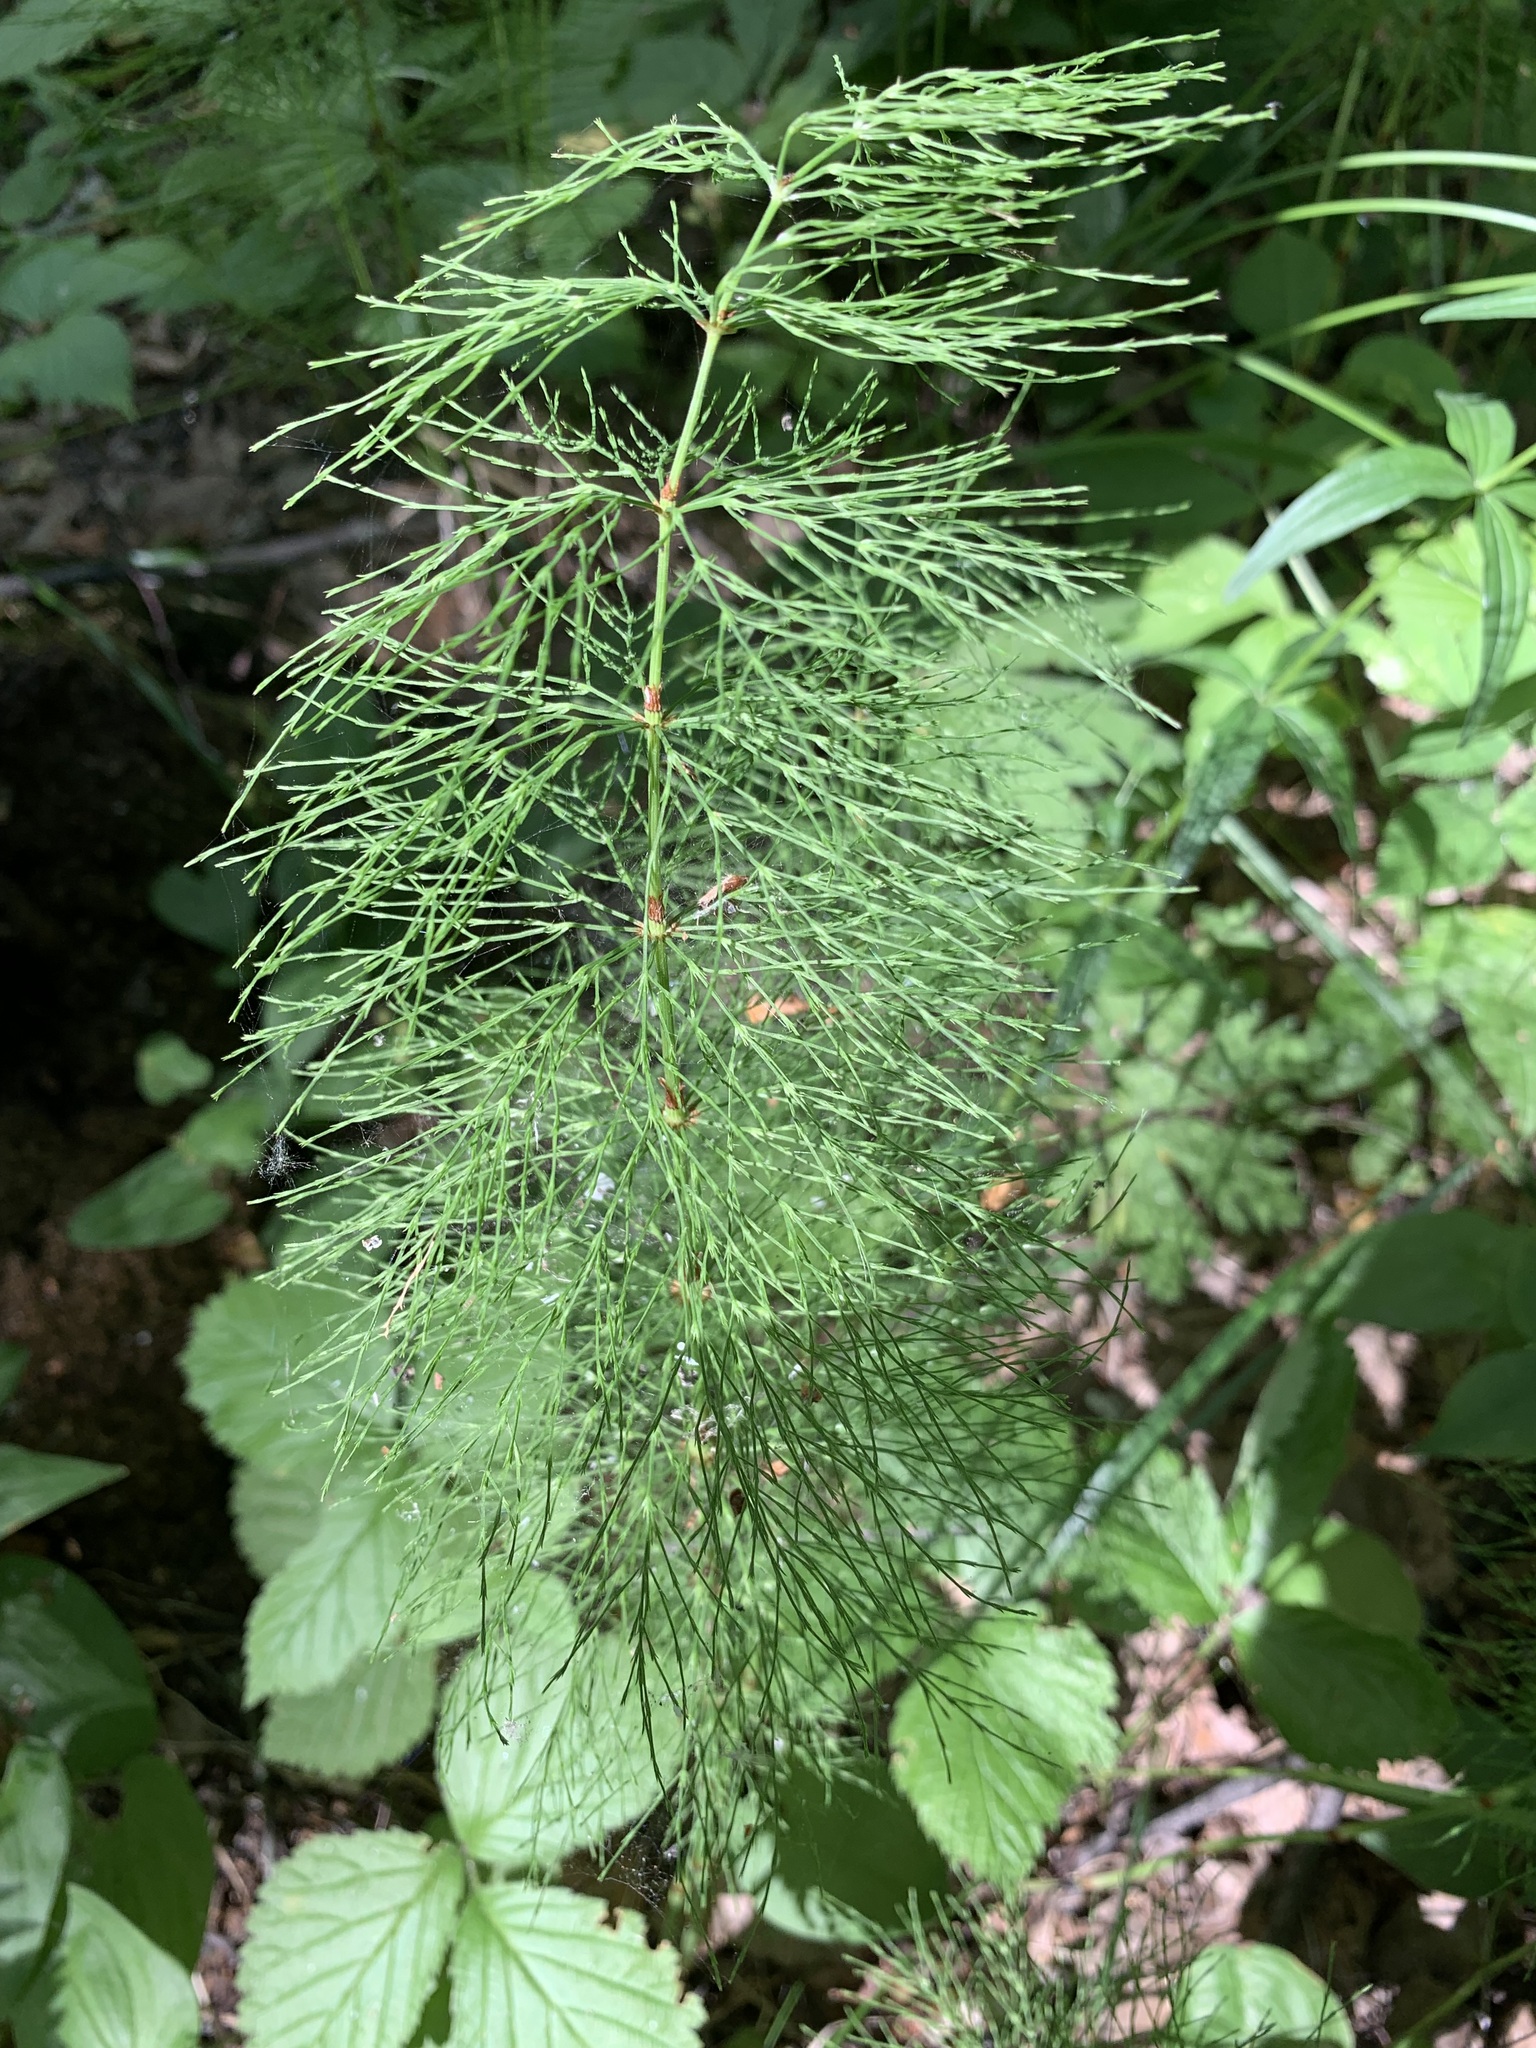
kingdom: Plantae
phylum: Tracheophyta
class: Polypodiopsida
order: Equisetales
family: Equisetaceae
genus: Equisetum
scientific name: Equisetum sylvaticum
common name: Wood horsetail
